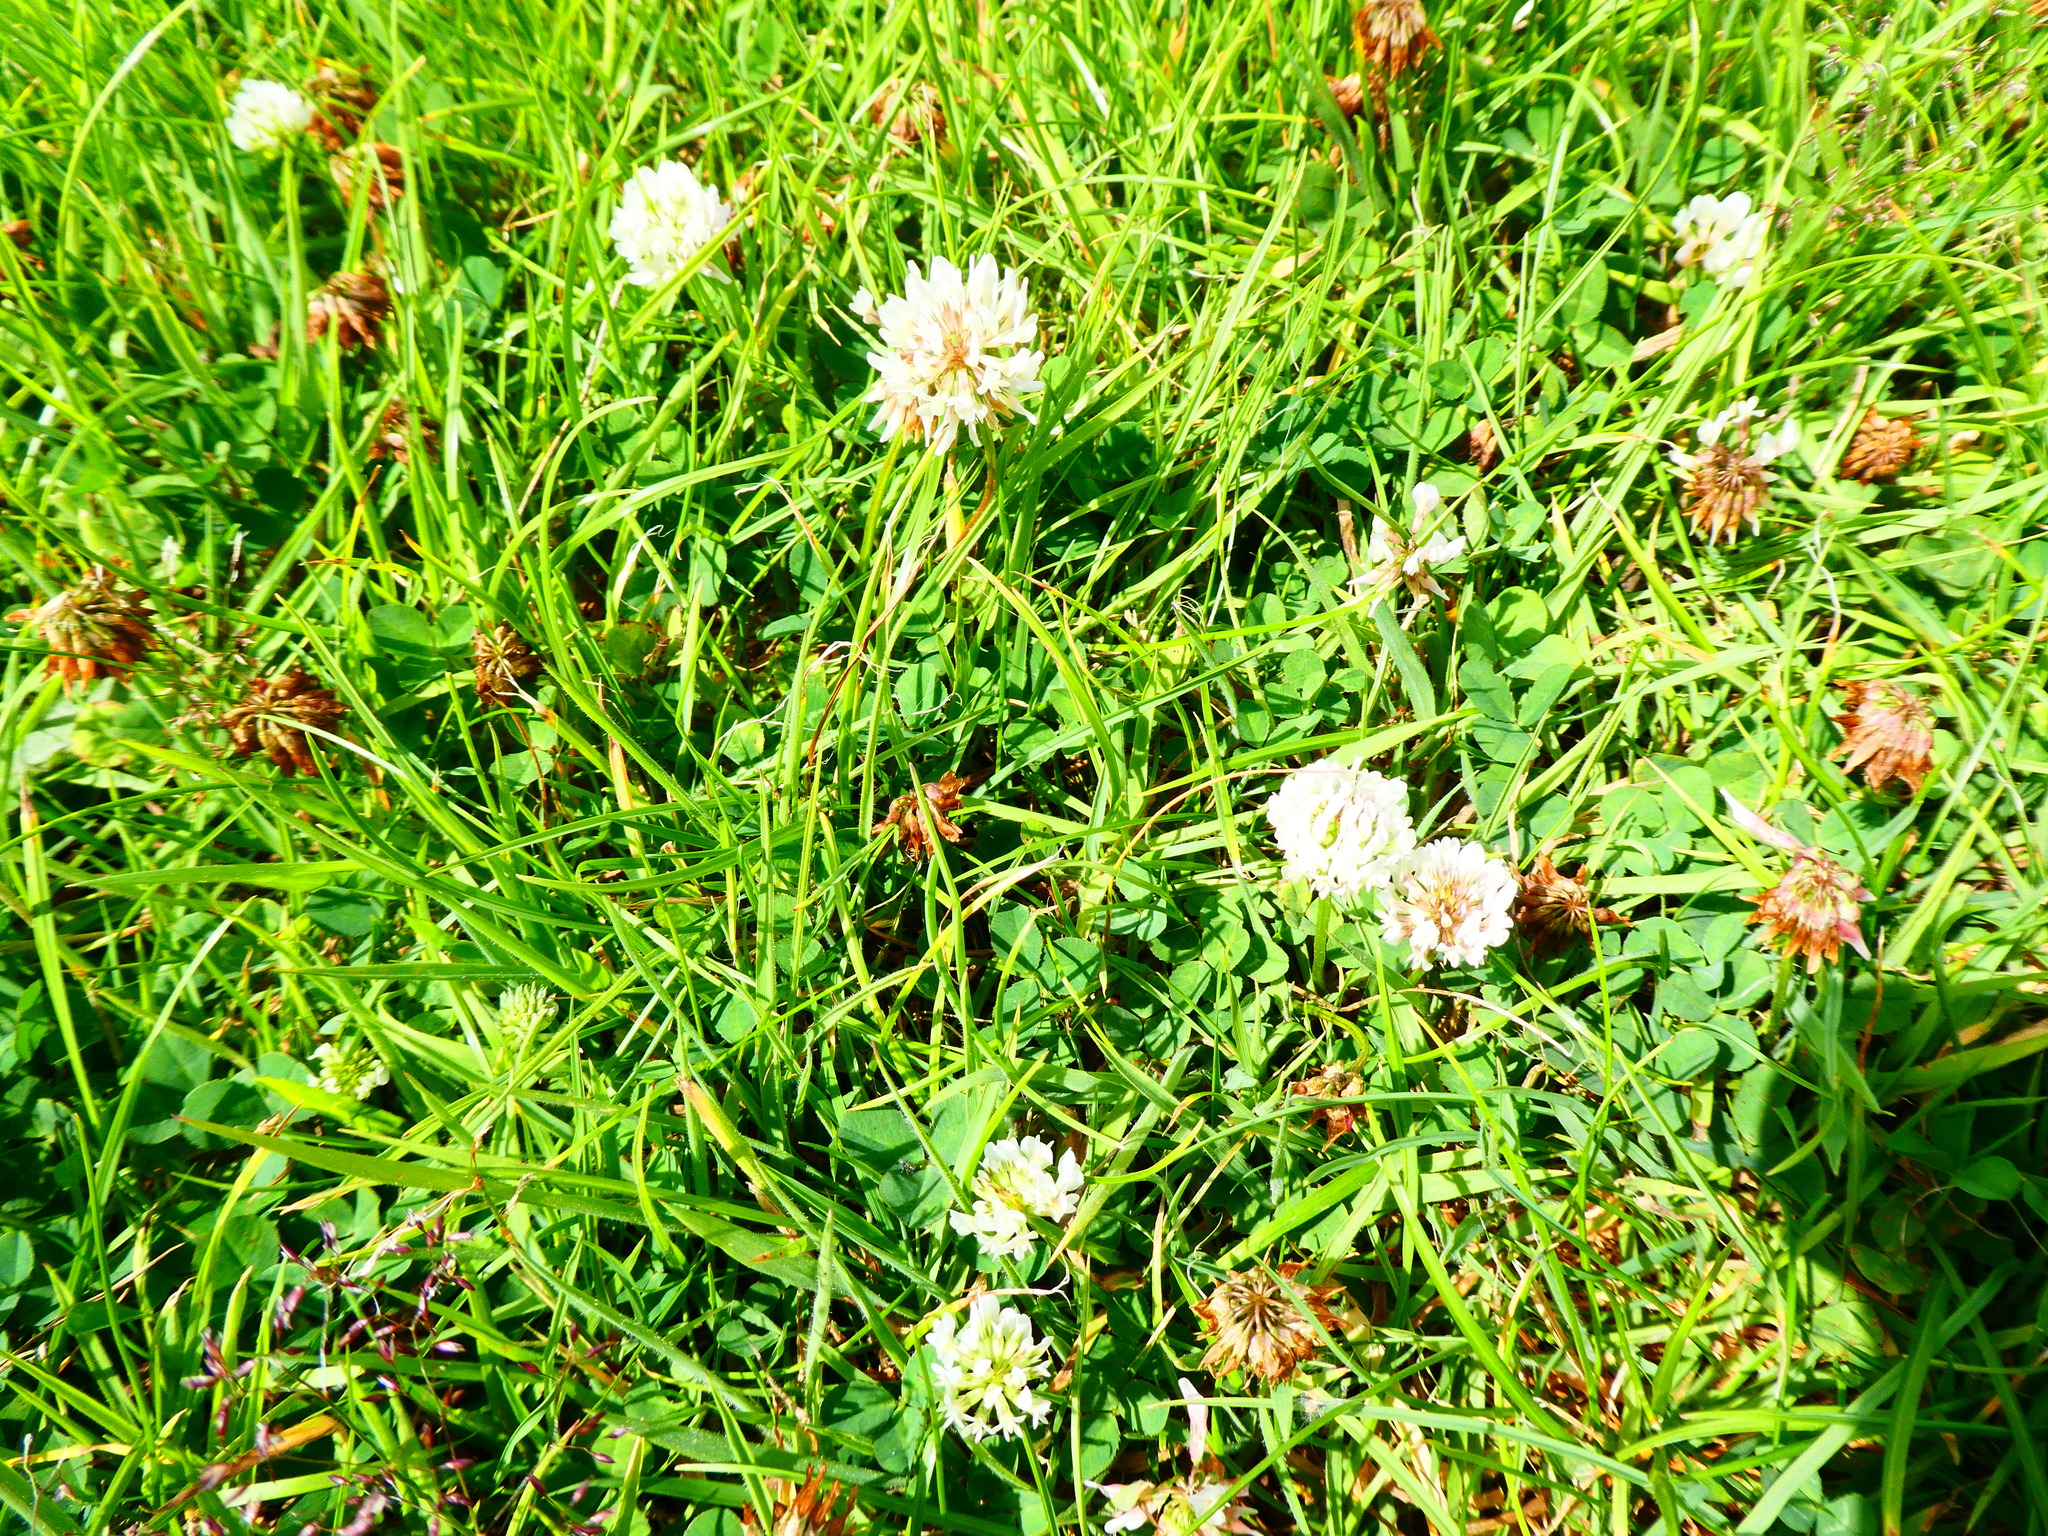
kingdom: Plantae
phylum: Tracheophyta
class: Magnoliopsida
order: Fabales
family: Fabaceae
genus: Trifolium
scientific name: Trifolium repens
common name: White clover
